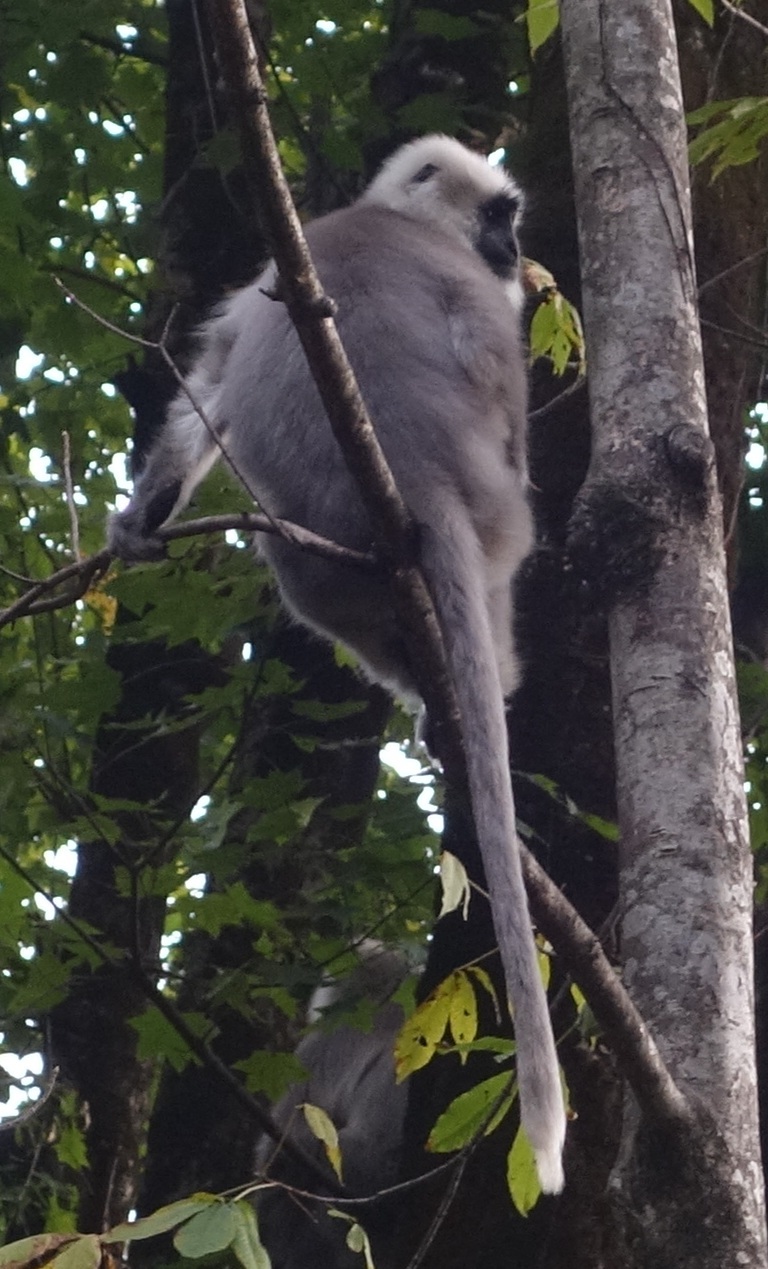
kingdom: Animalia
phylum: Chordata
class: Mammalia
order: Primates
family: Cercopithecidae
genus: Semnopithecus
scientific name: Semnopithecus schistaceus
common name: Nepal gray langur
